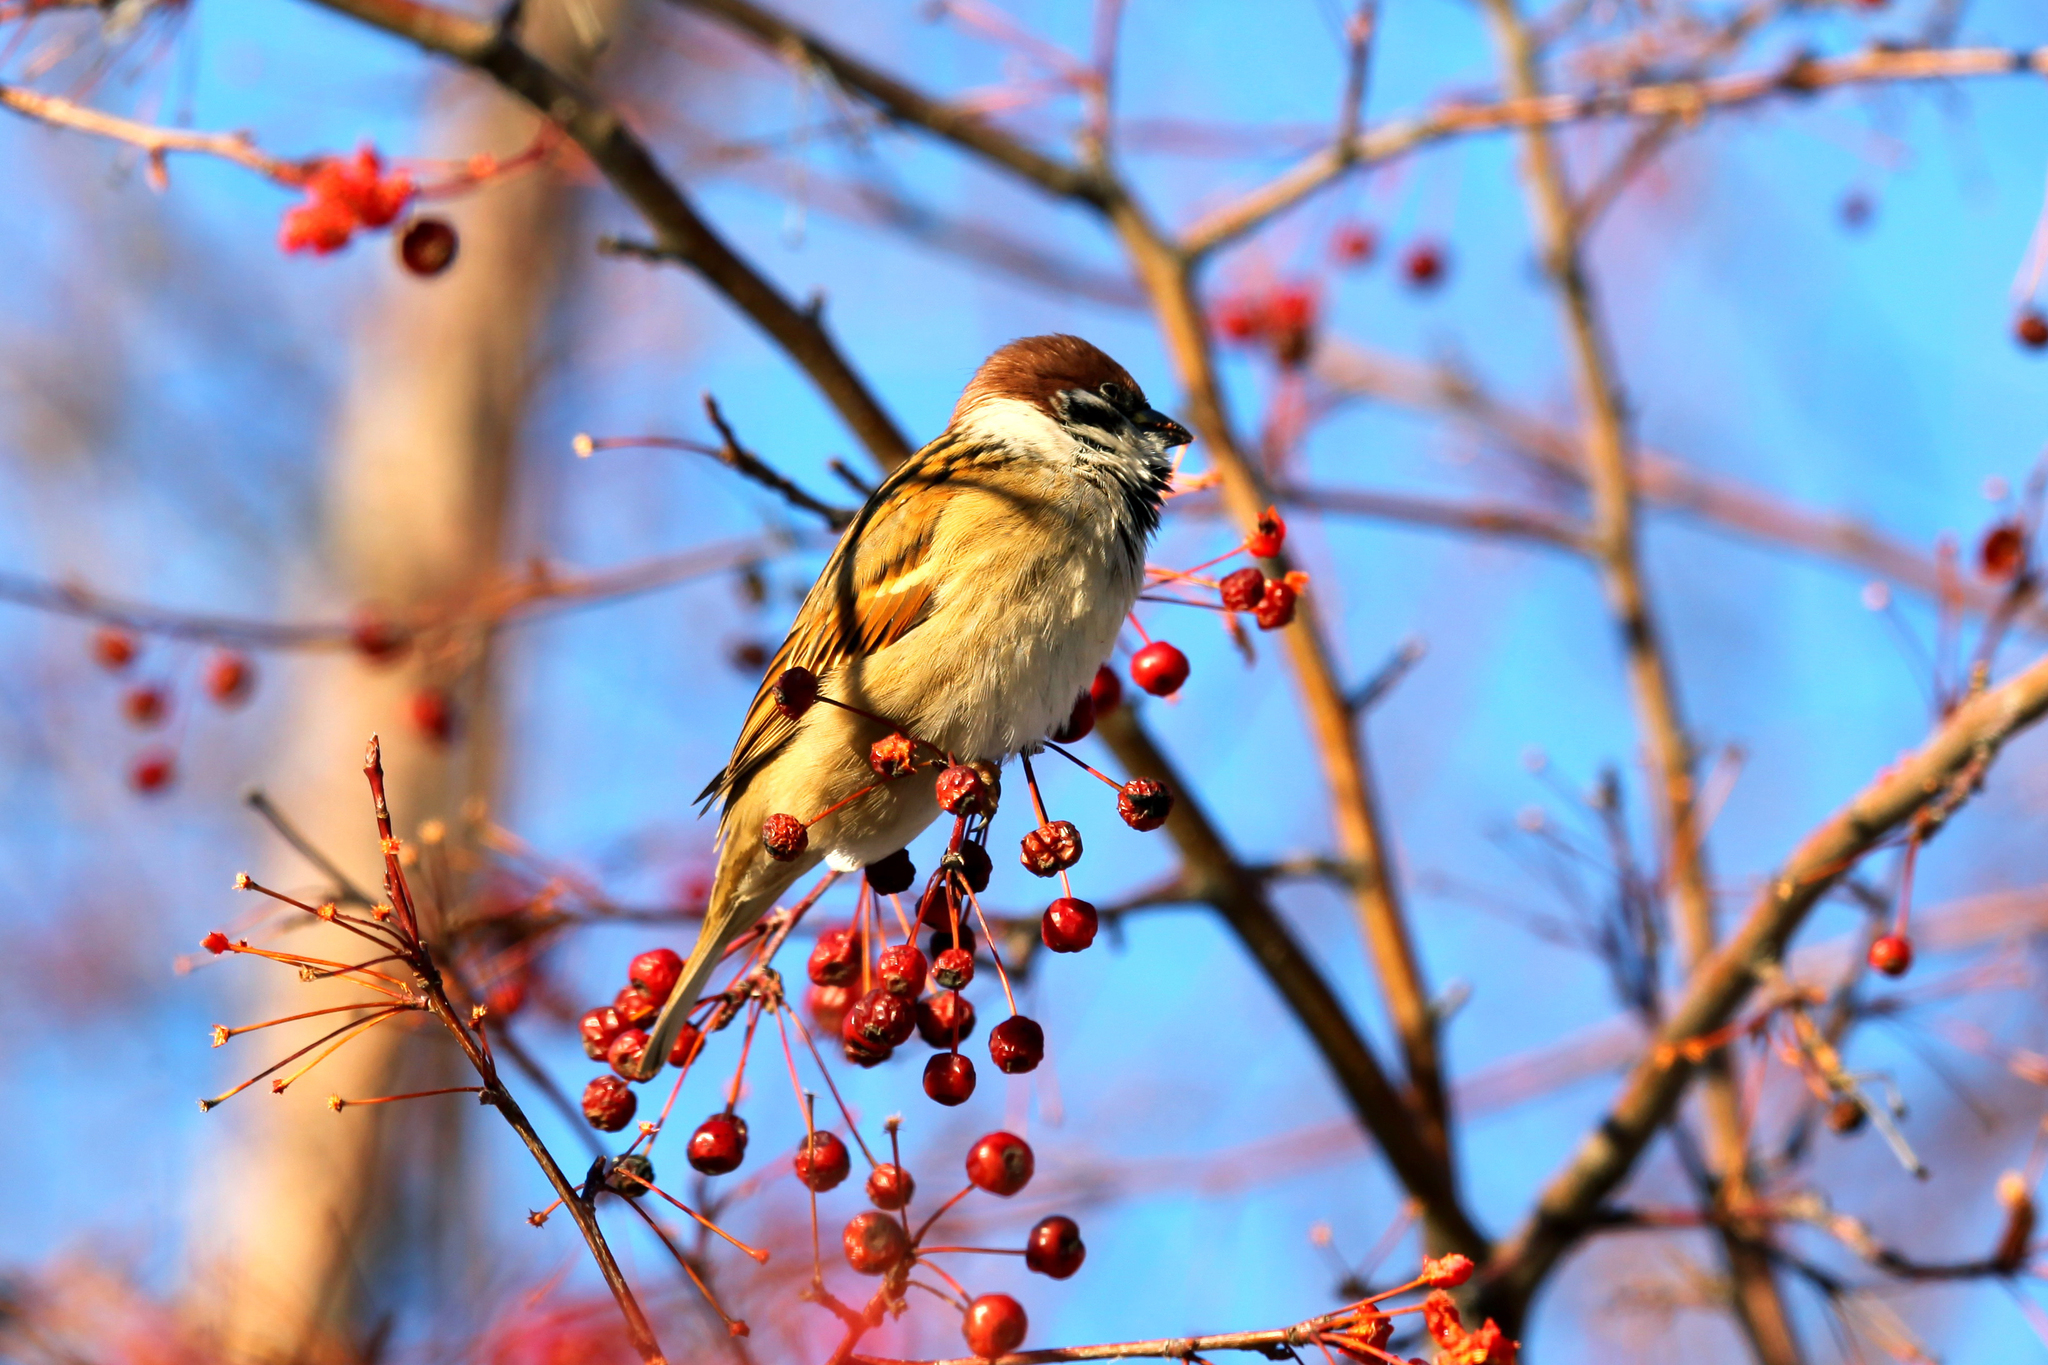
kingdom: Animalia
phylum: Chordata
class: Aves
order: Passeriformes
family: Passeridae
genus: Passer
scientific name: Passer montanus
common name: Eurasian tree sparrow
